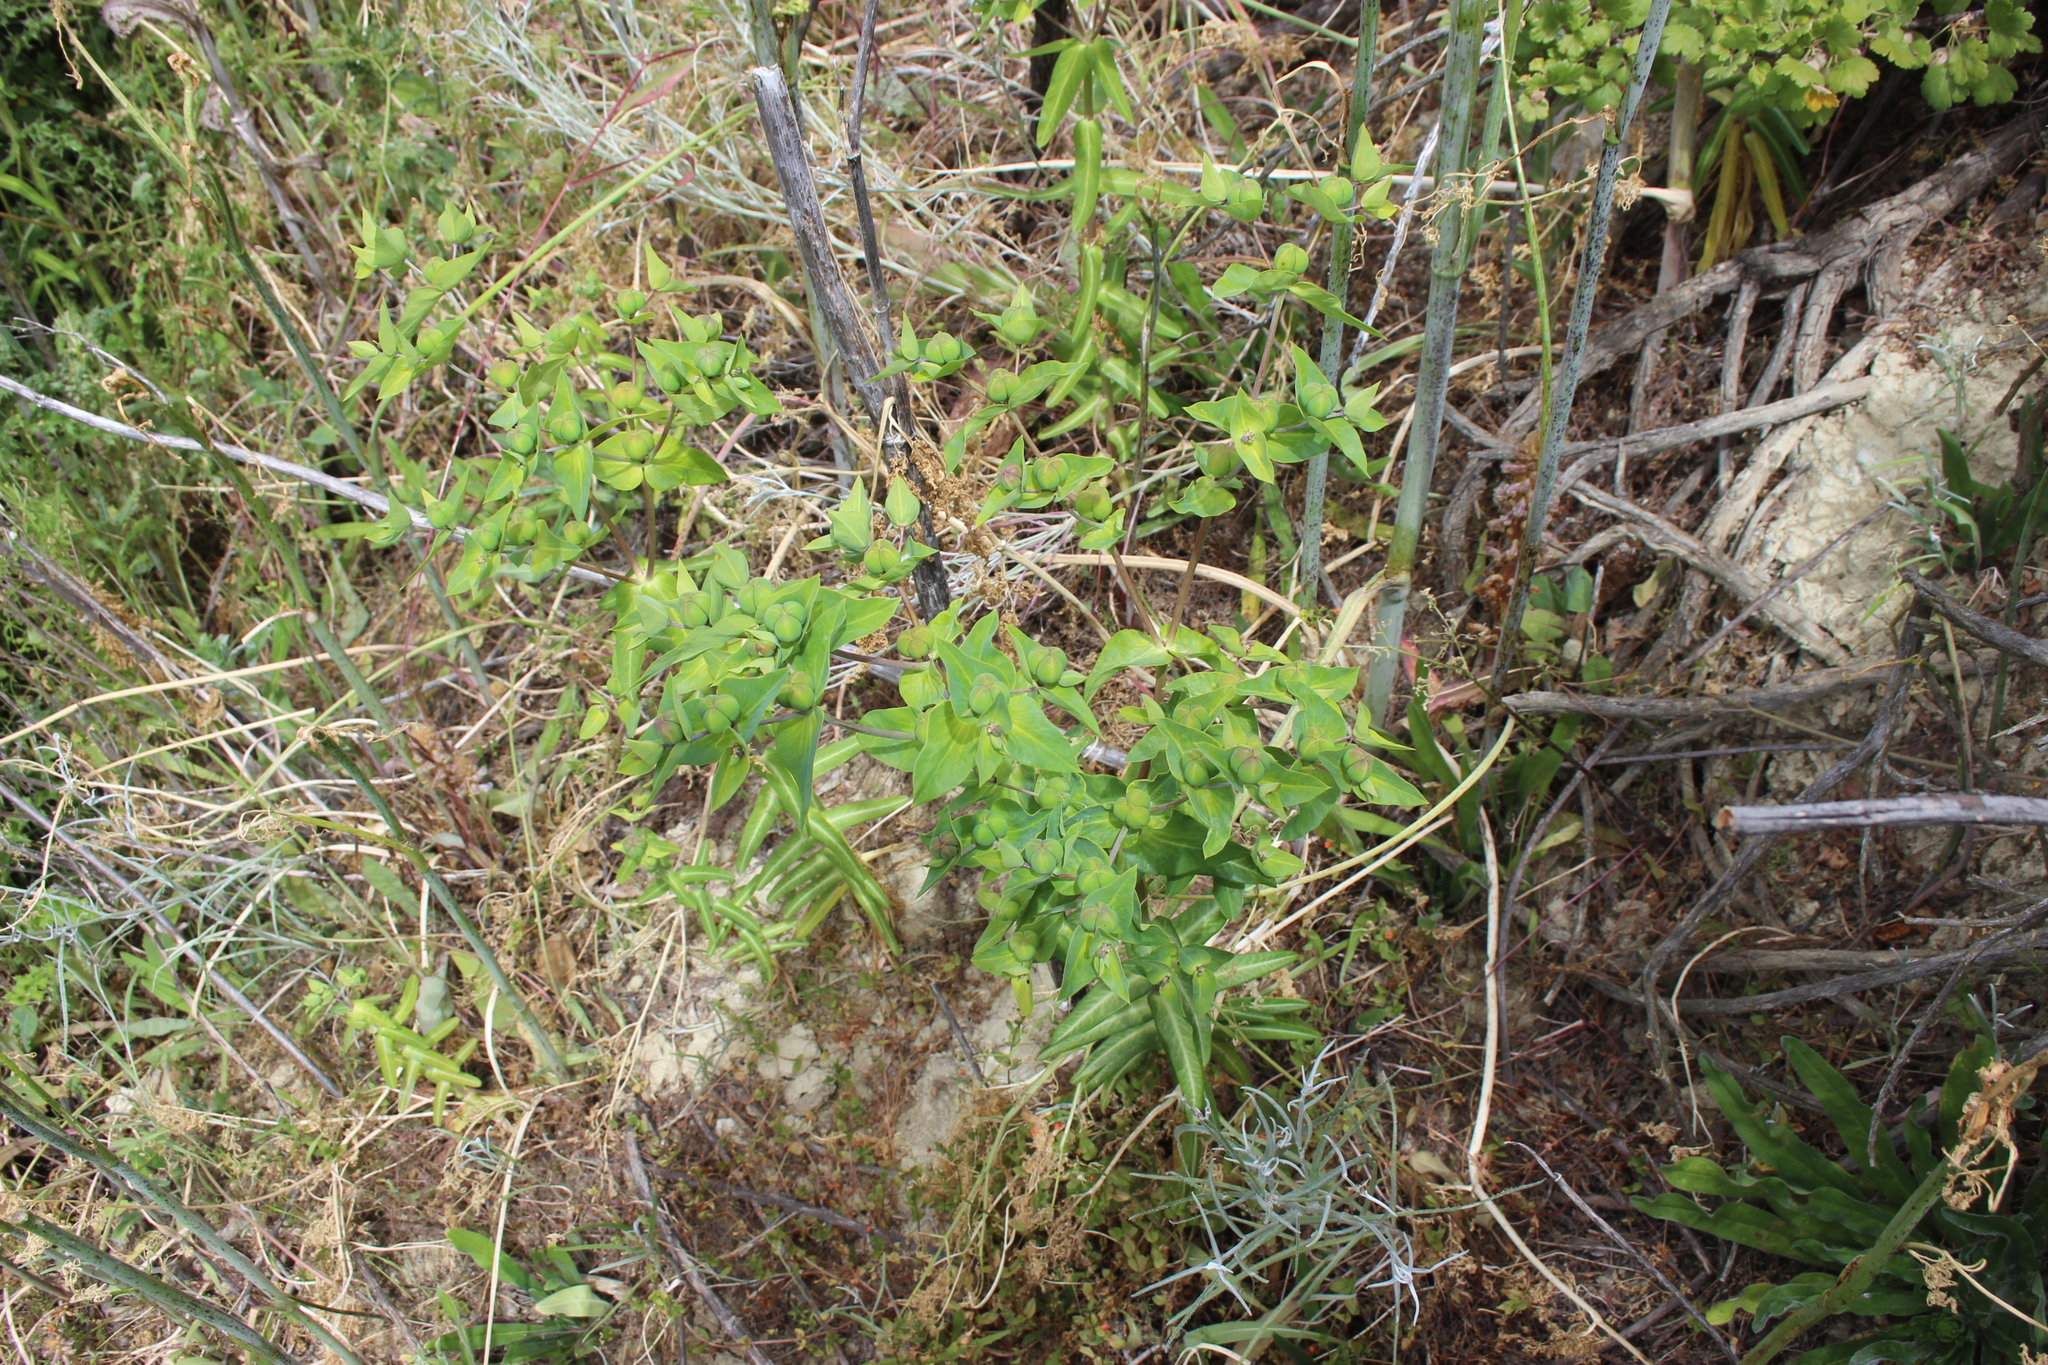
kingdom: Plantae
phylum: Tracheophyta
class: Magnoliopsida
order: Malpighiales
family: Euphorbiaceae
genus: Euphorbia
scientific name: Euphorbia lathyris
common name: Caper spurge
